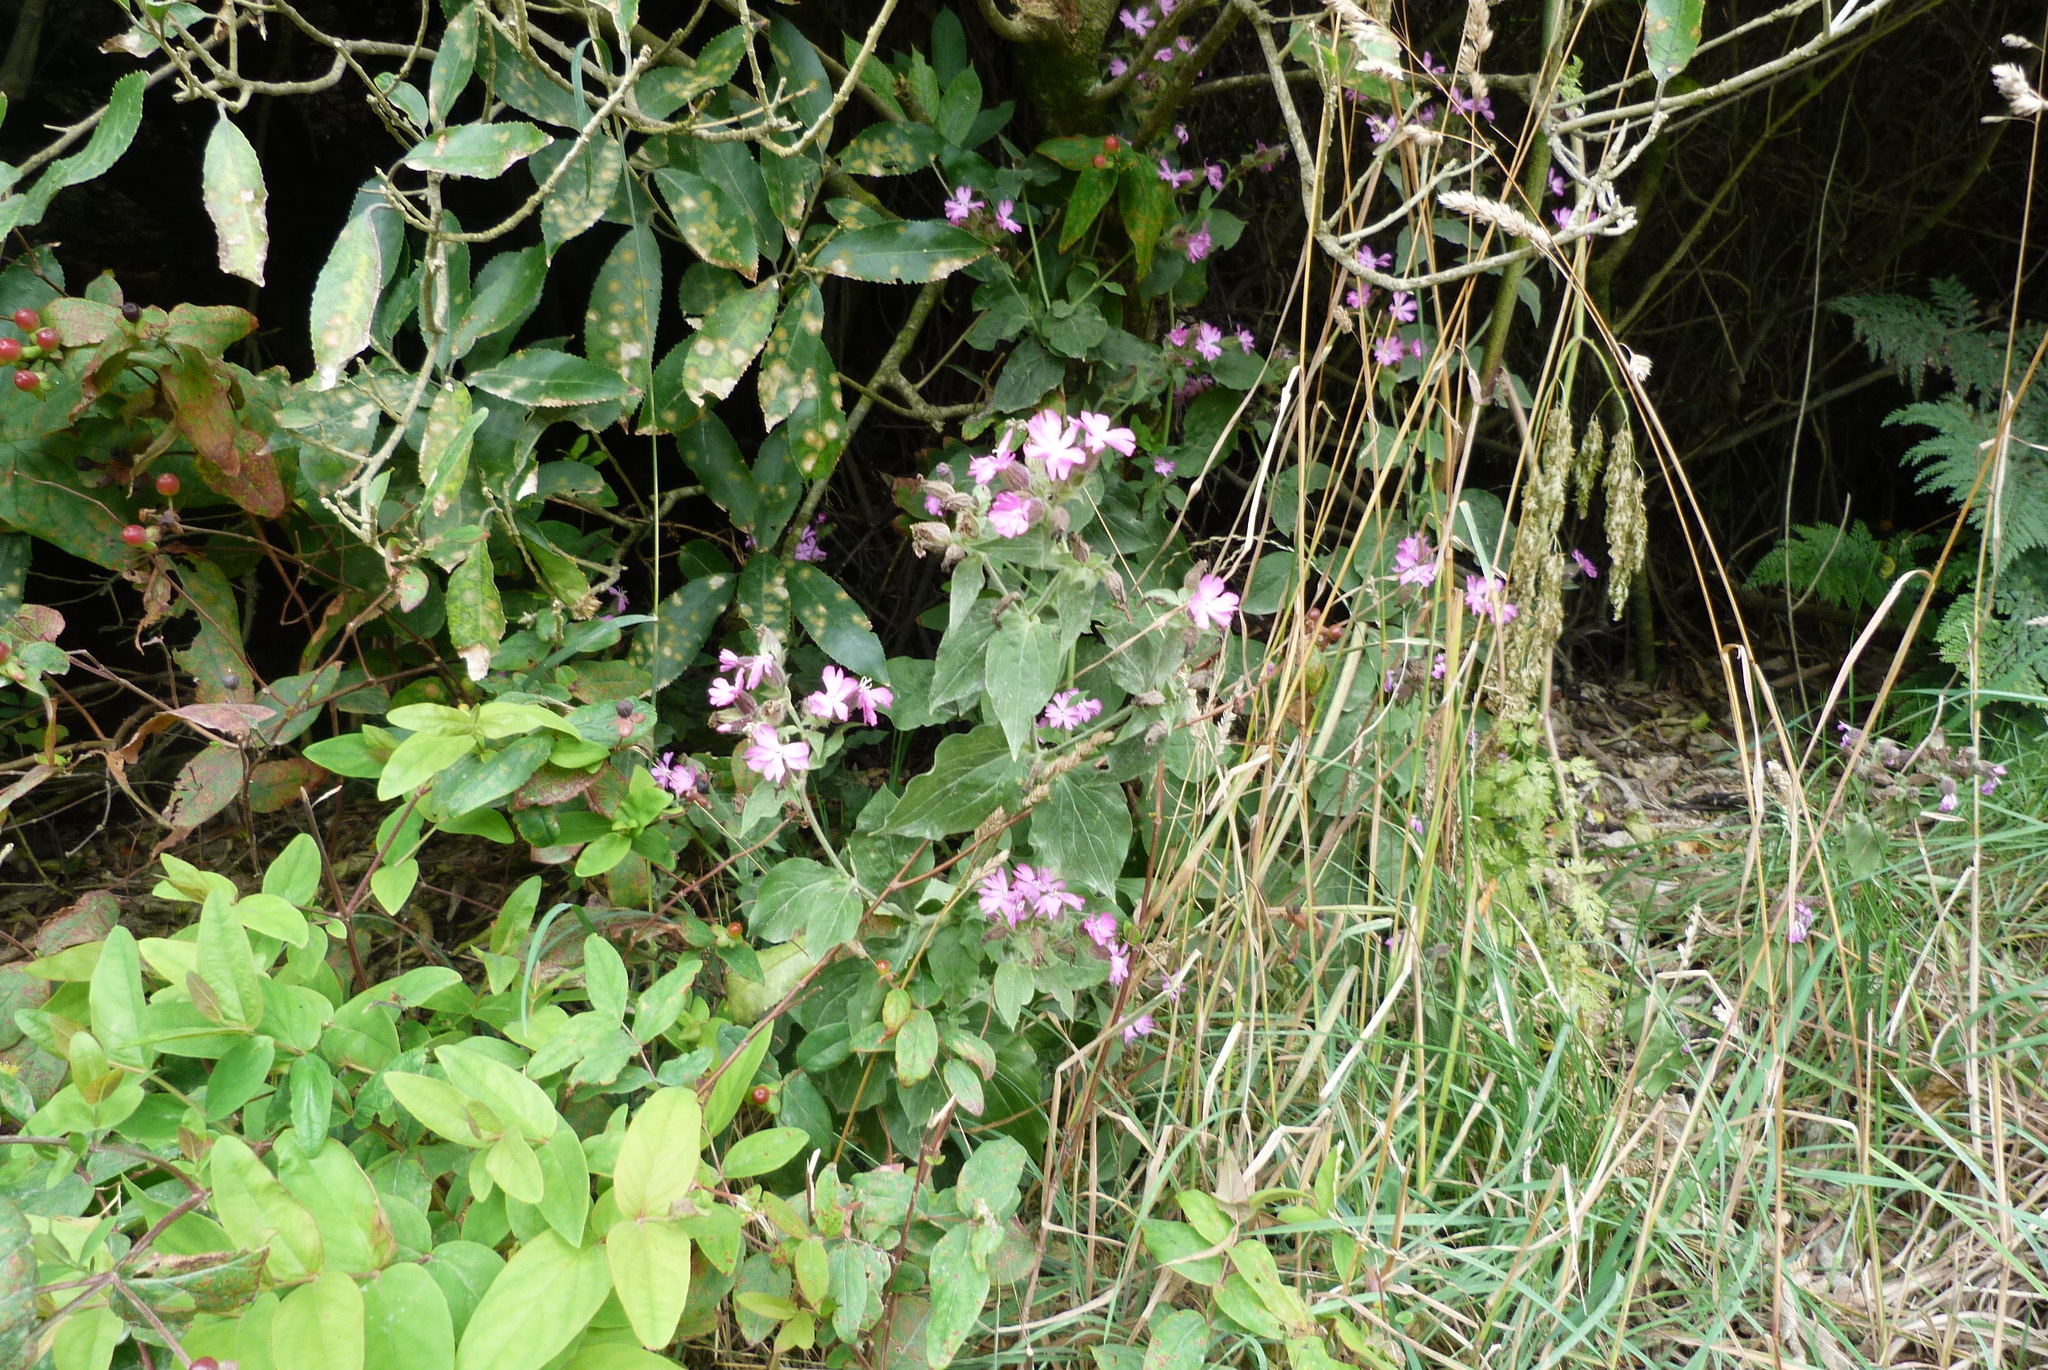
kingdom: Plantae
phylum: Tracheophyta
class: Magnoliopsida
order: Caryophyllales
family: Caryophyllaceae
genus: Silene
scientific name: Silene dioica
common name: Red campion
